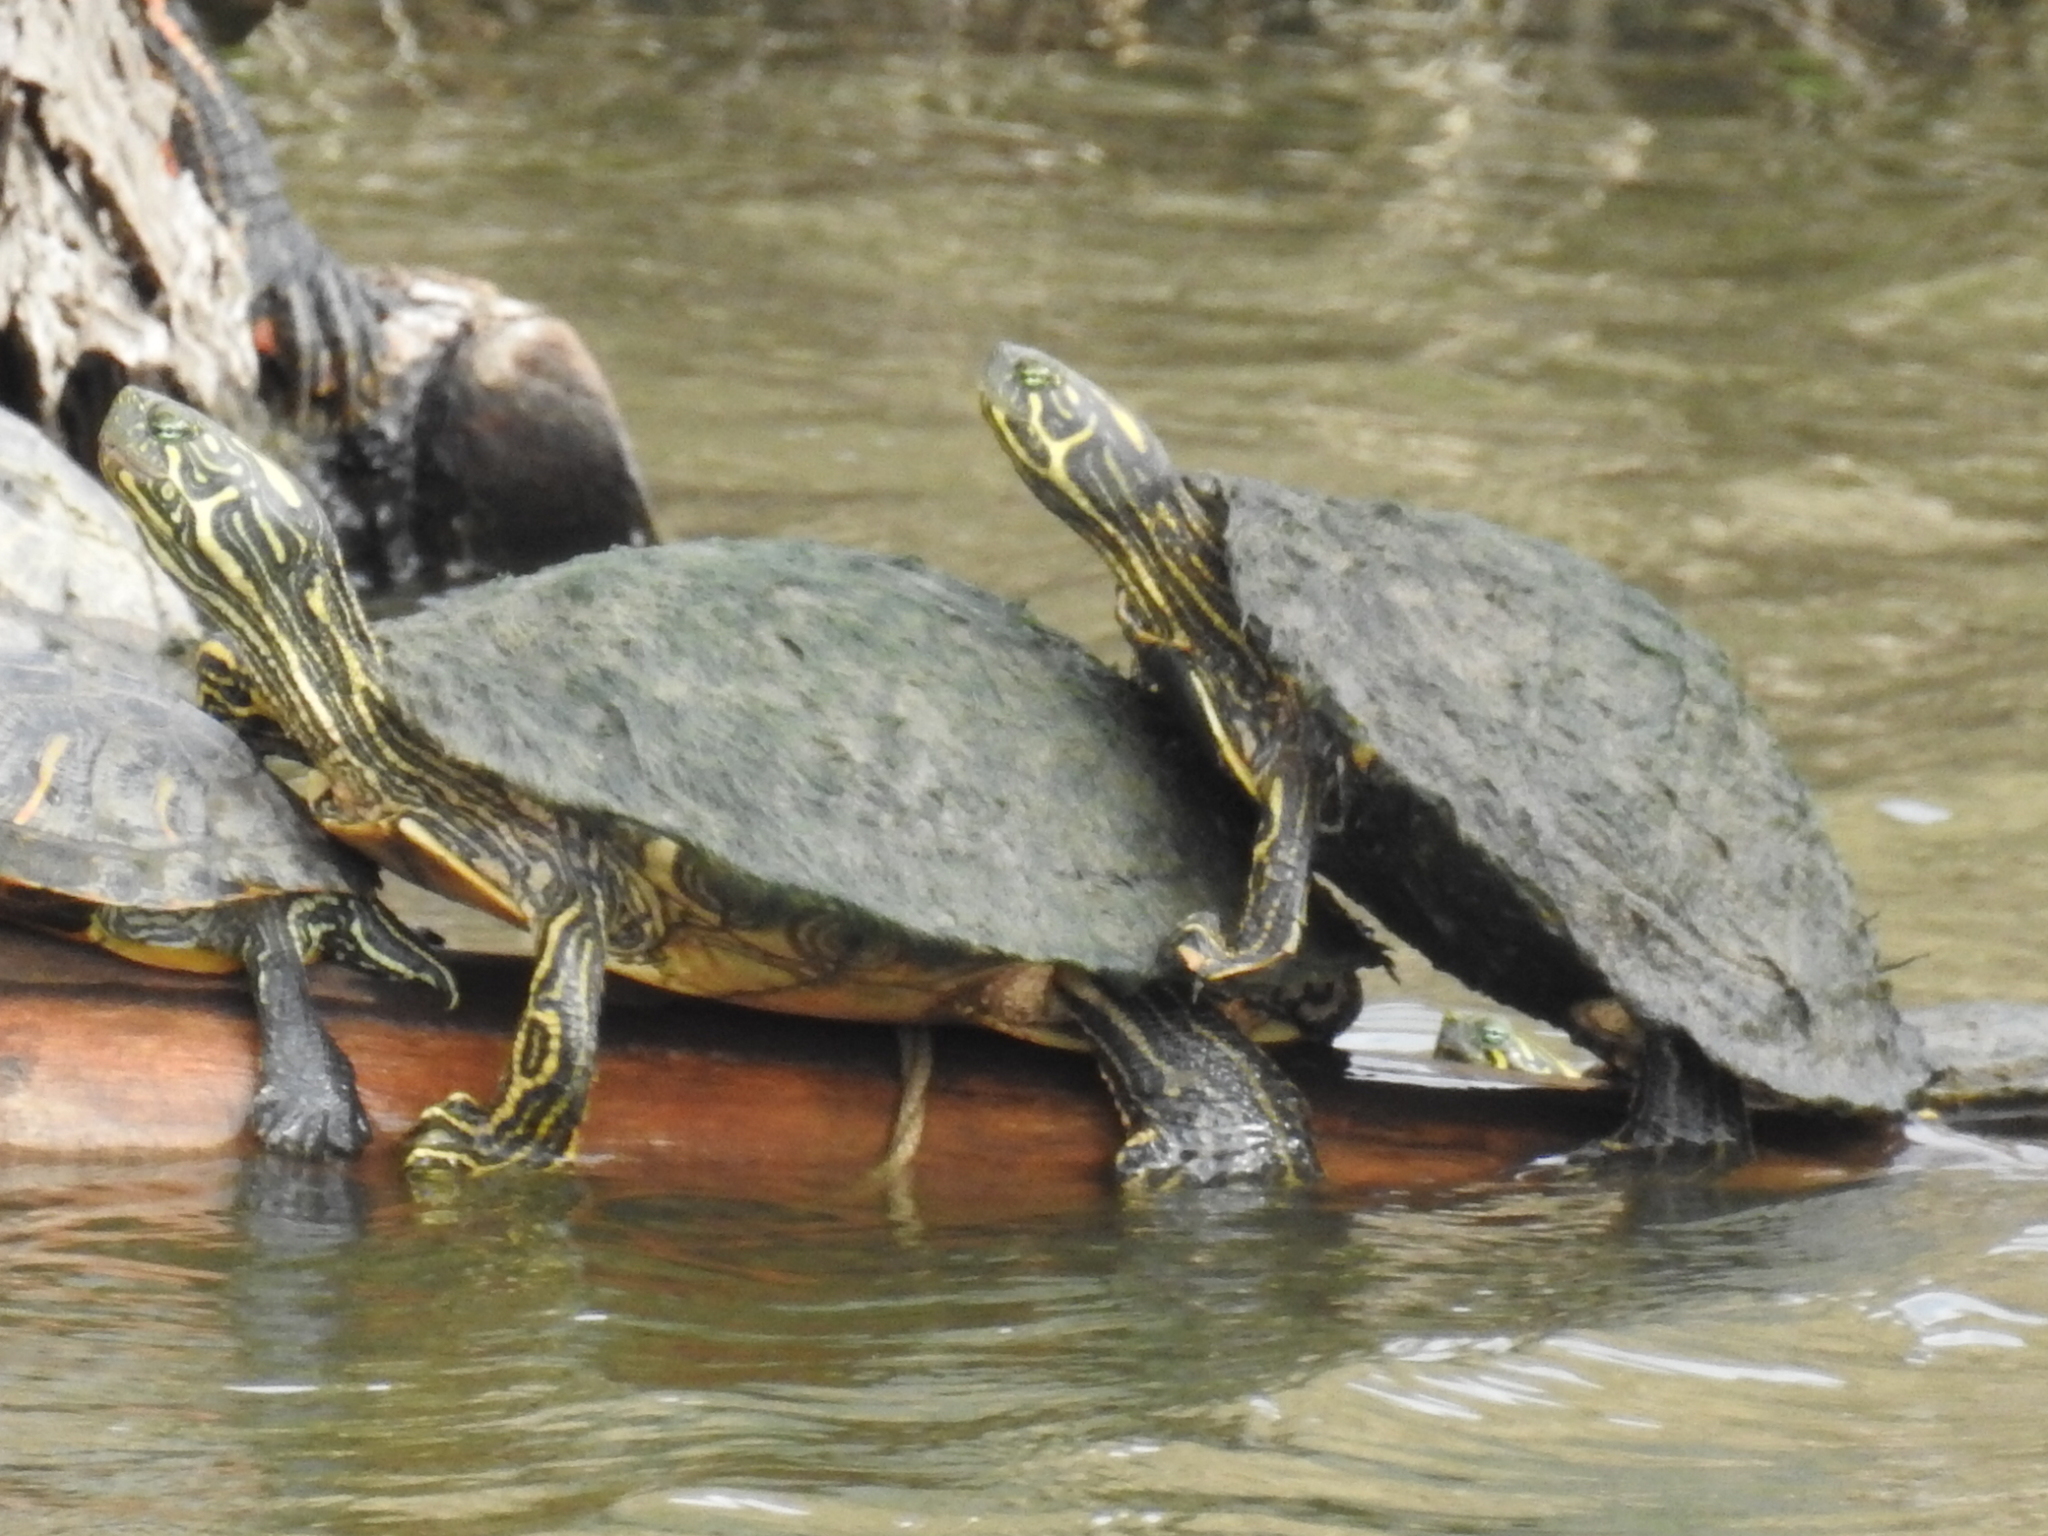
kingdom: Animalia
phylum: Chordata
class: Testudines
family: Emydidae
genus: Pseudemys
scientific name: Pseudemys texana
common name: Texas river cooter
